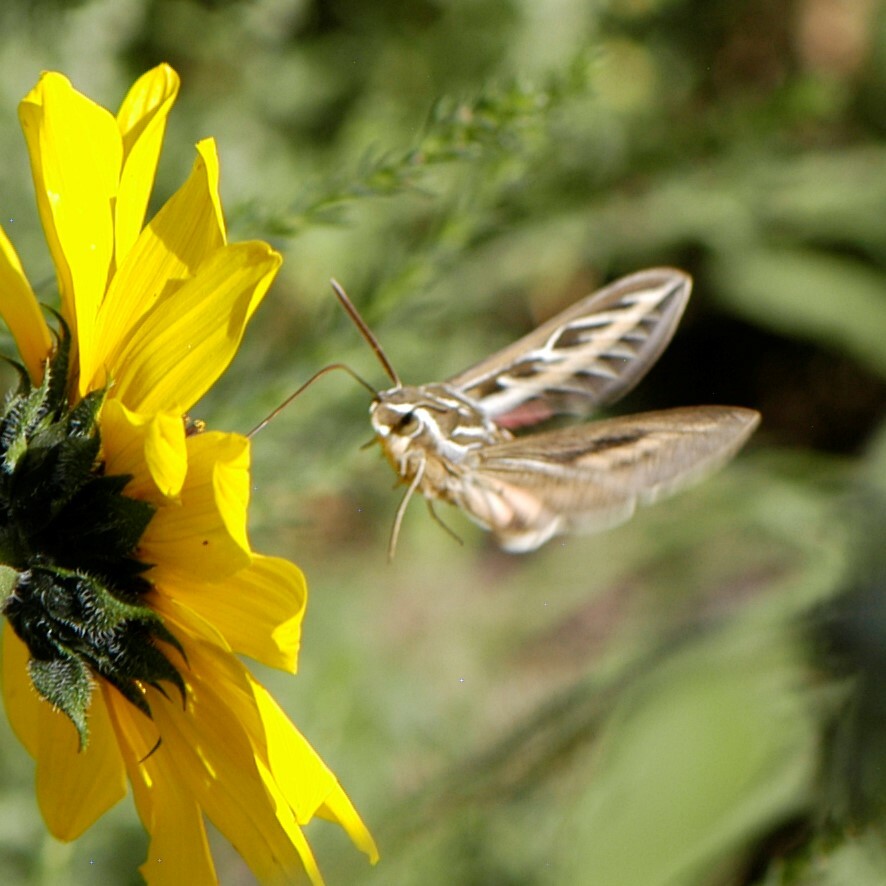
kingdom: Animalia
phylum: Arthropoda
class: Insecta
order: Lepidoptera
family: Sphingidae
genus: Hyles
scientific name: Hyles lineata
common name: White-lined sphinx
